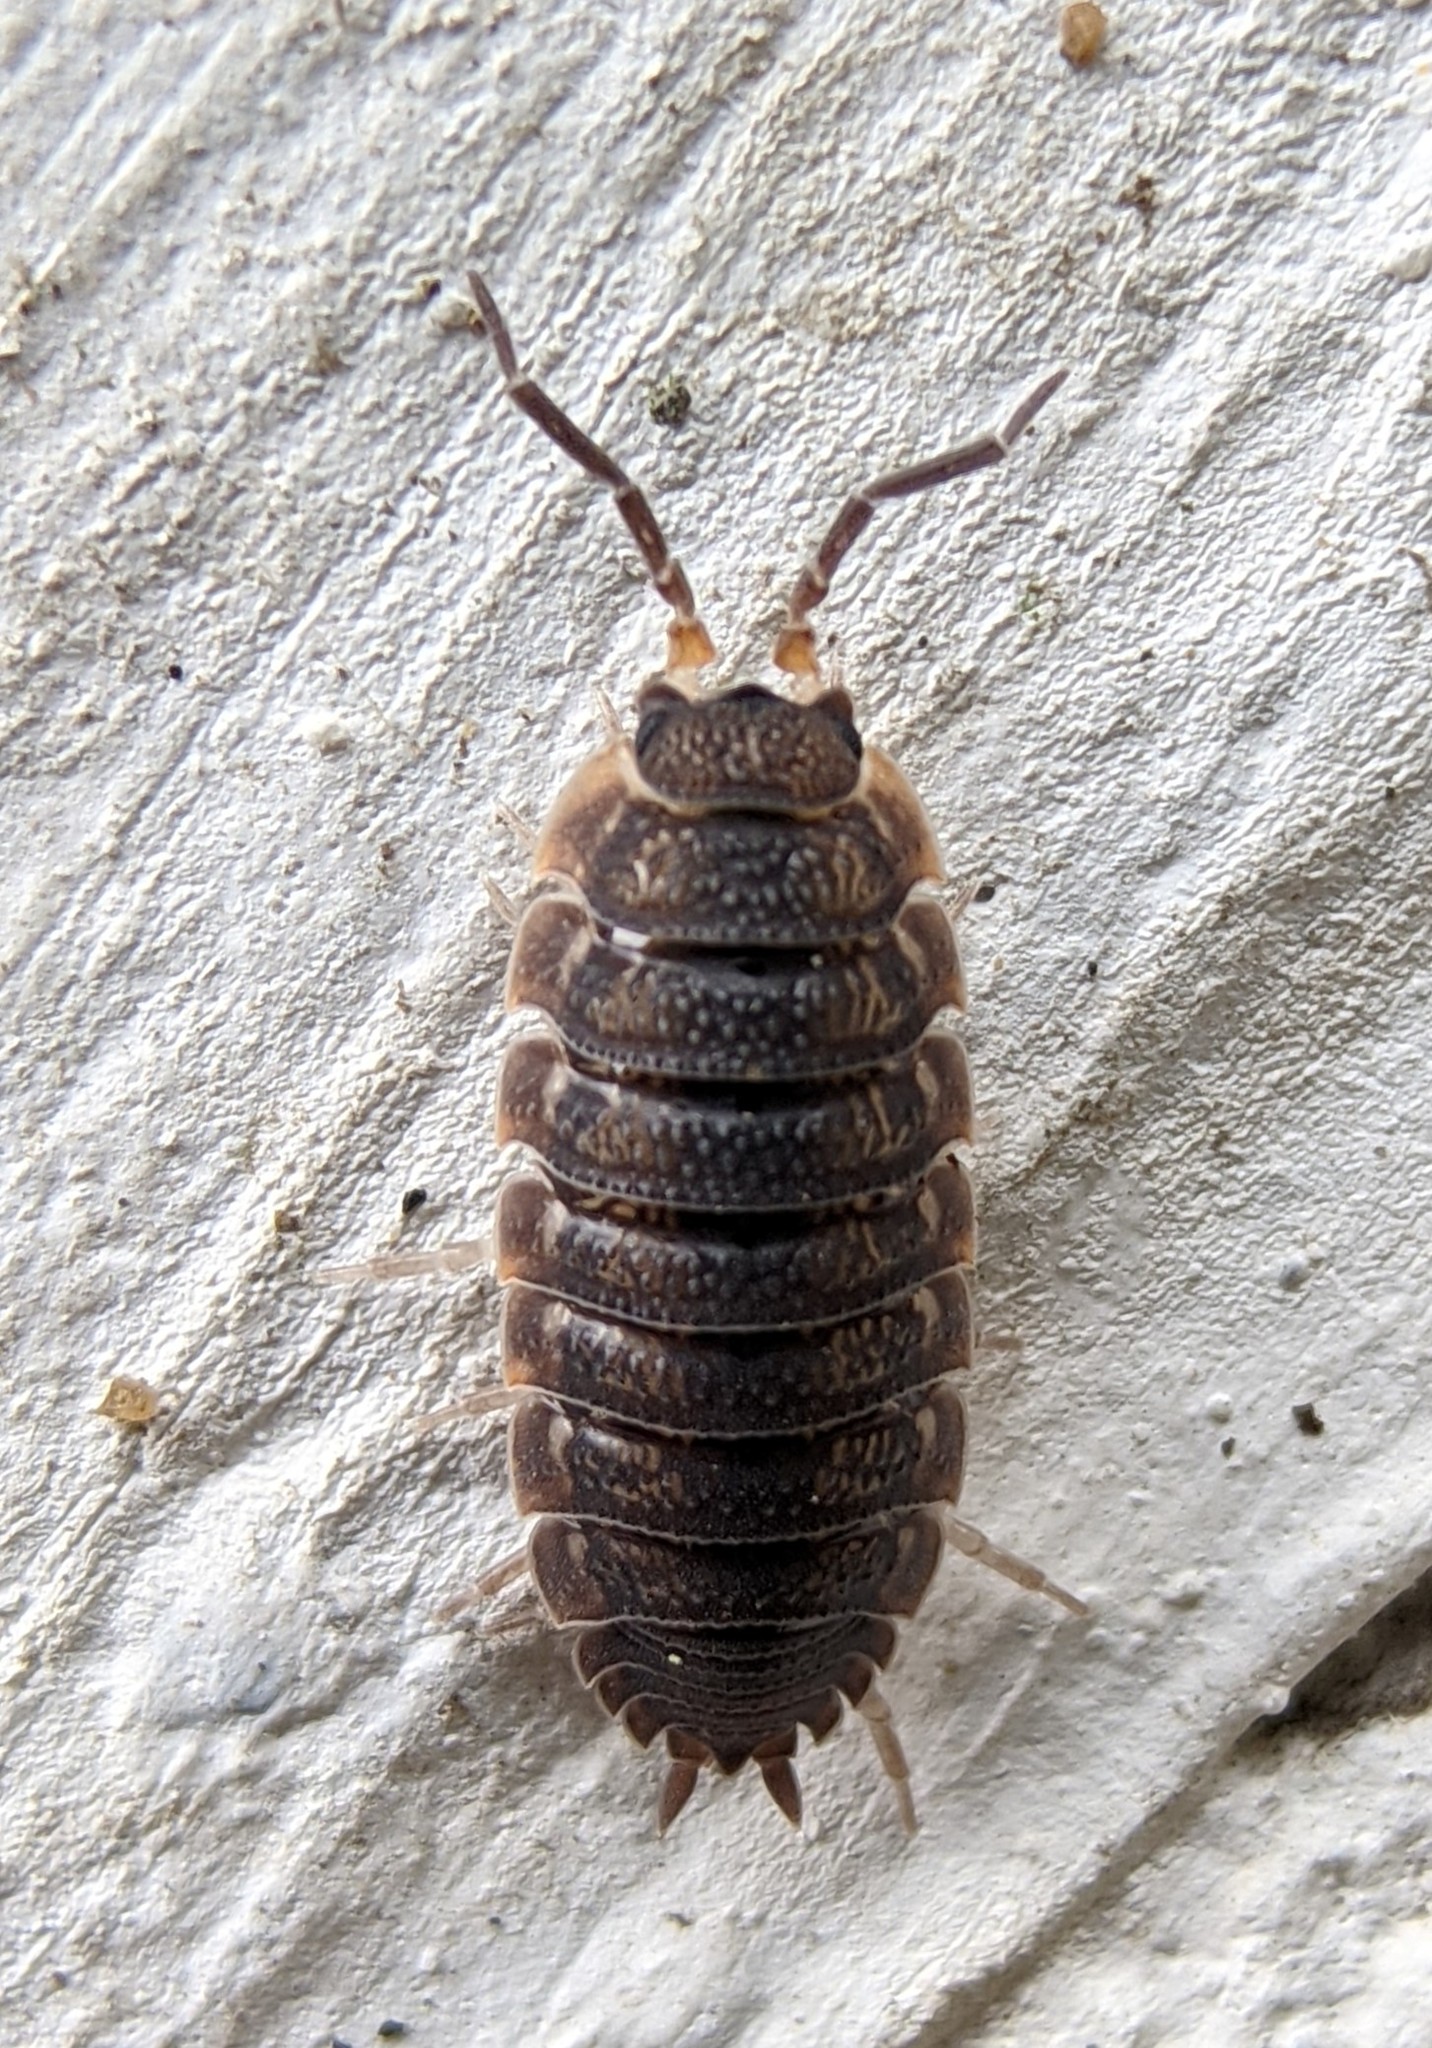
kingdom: Animalia
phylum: Arthropoda
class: Malacostraca
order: Isopoda
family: Porcellionidae
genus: Porcellio
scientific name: Porcellio scaber
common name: Common rough woodlouse
